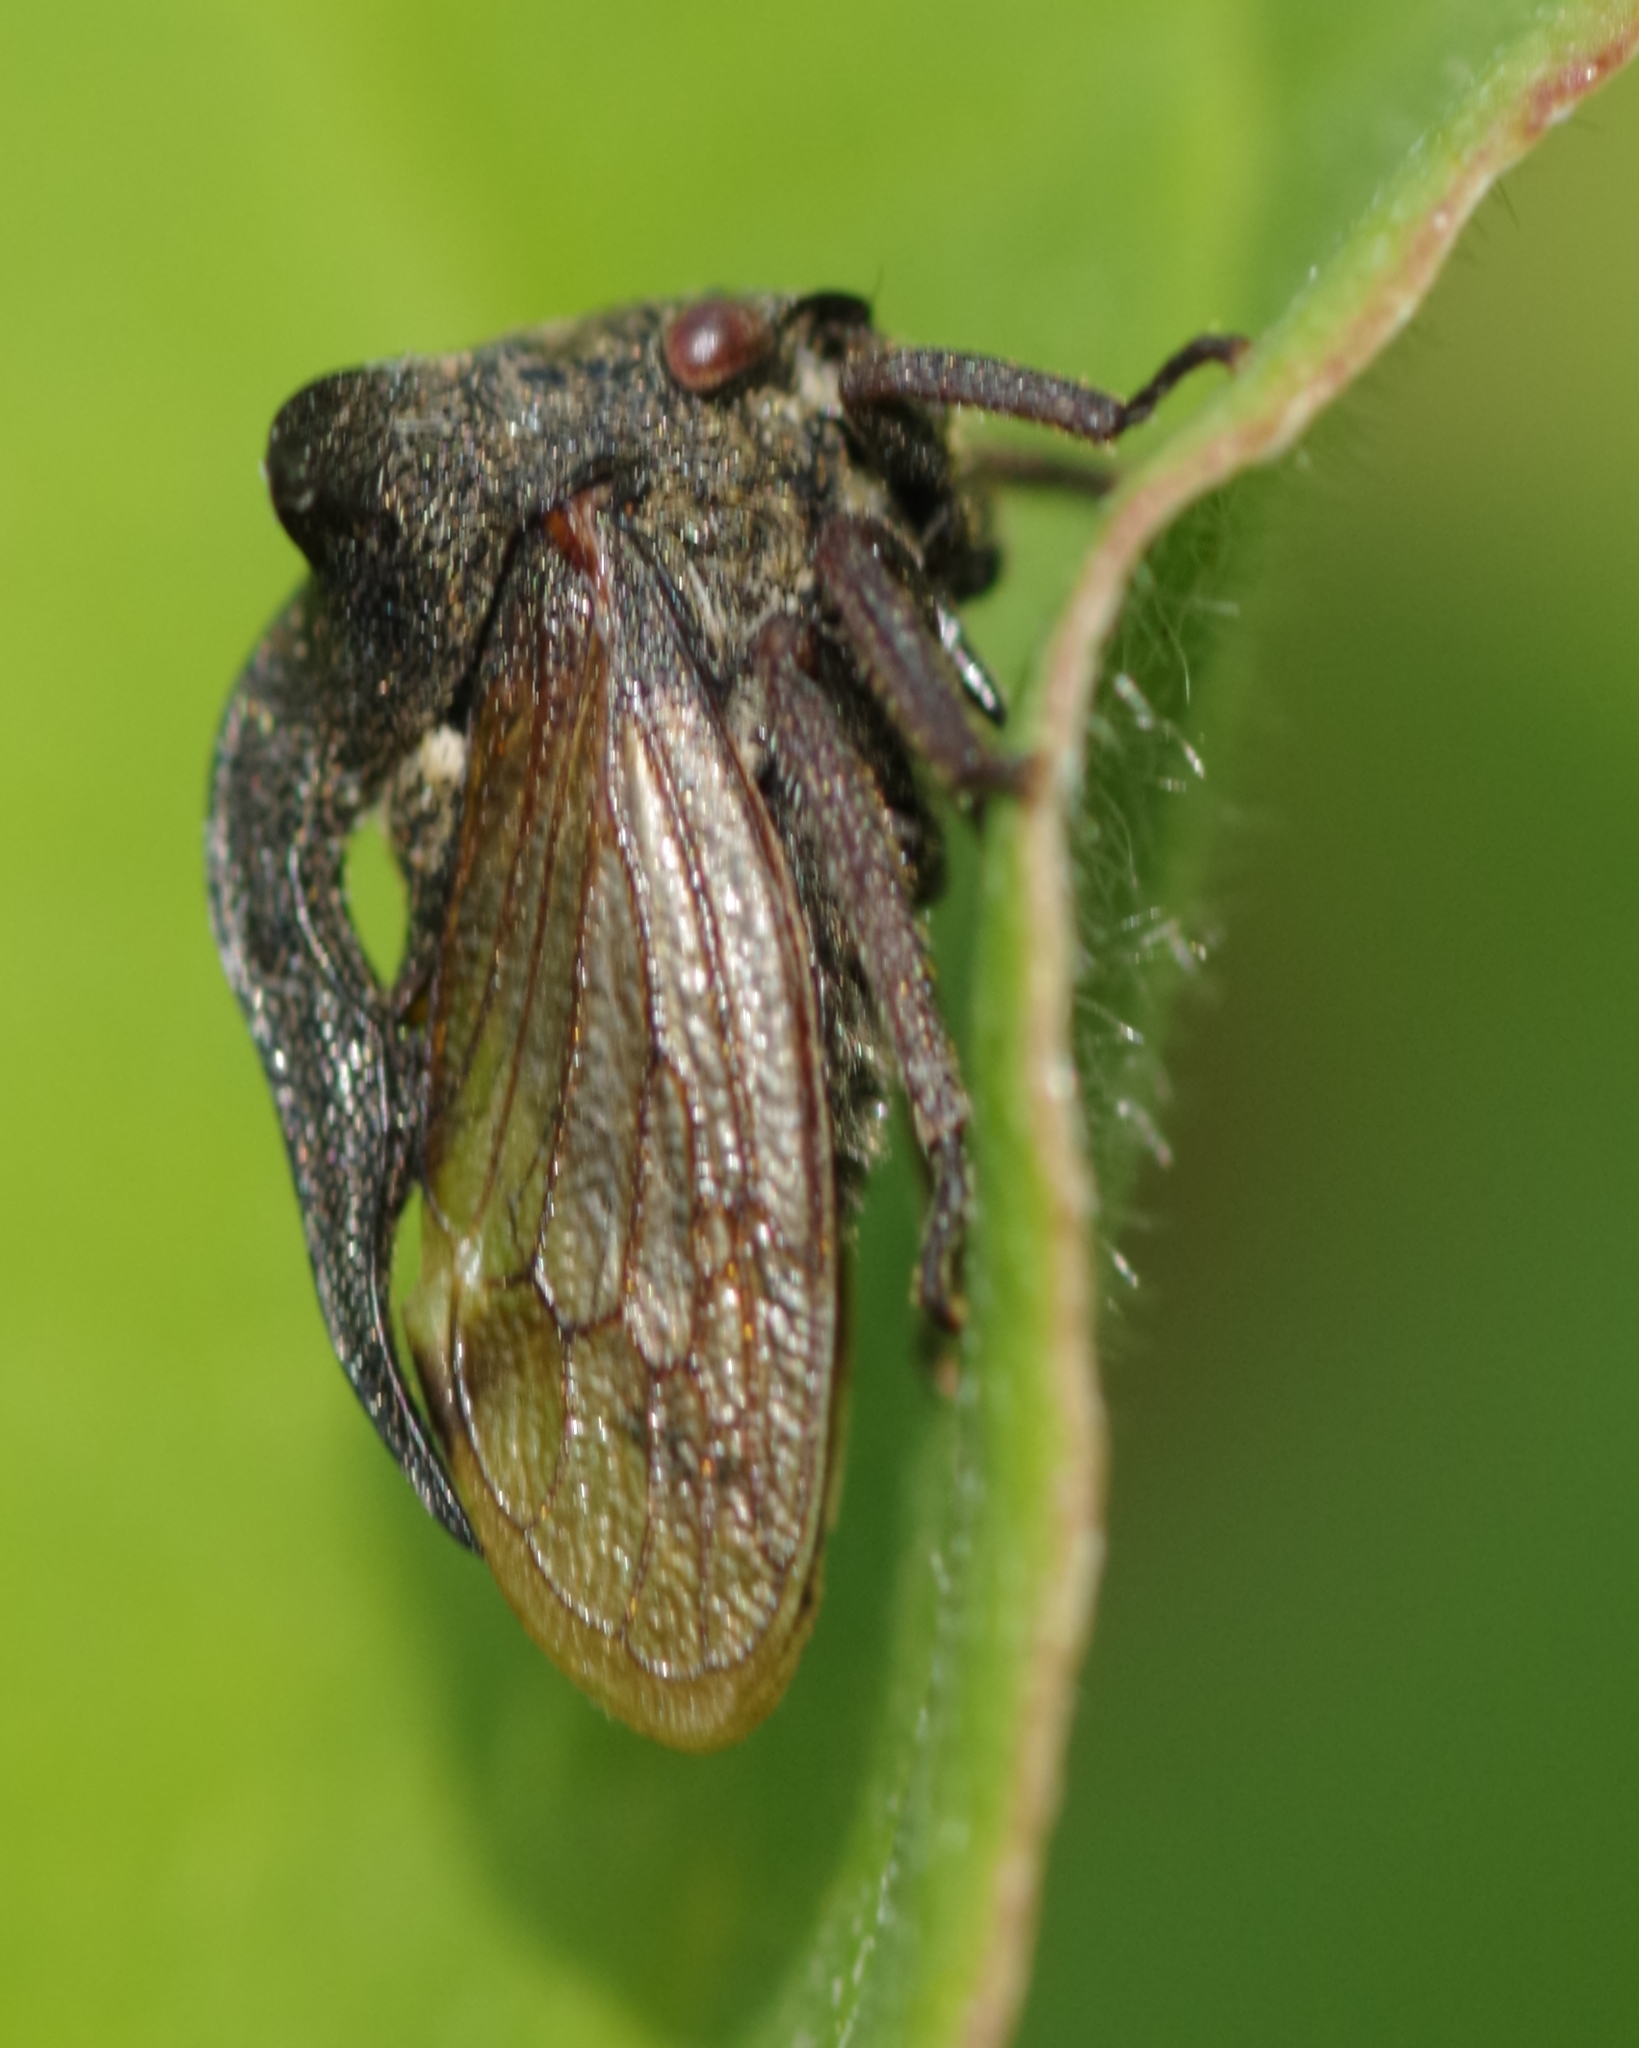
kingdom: Animalia
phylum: Arthropoda
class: Insecta
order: Hemiptera
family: Membracidae
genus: Centrotus
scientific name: Centrotus cornuta
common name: Treehopper
